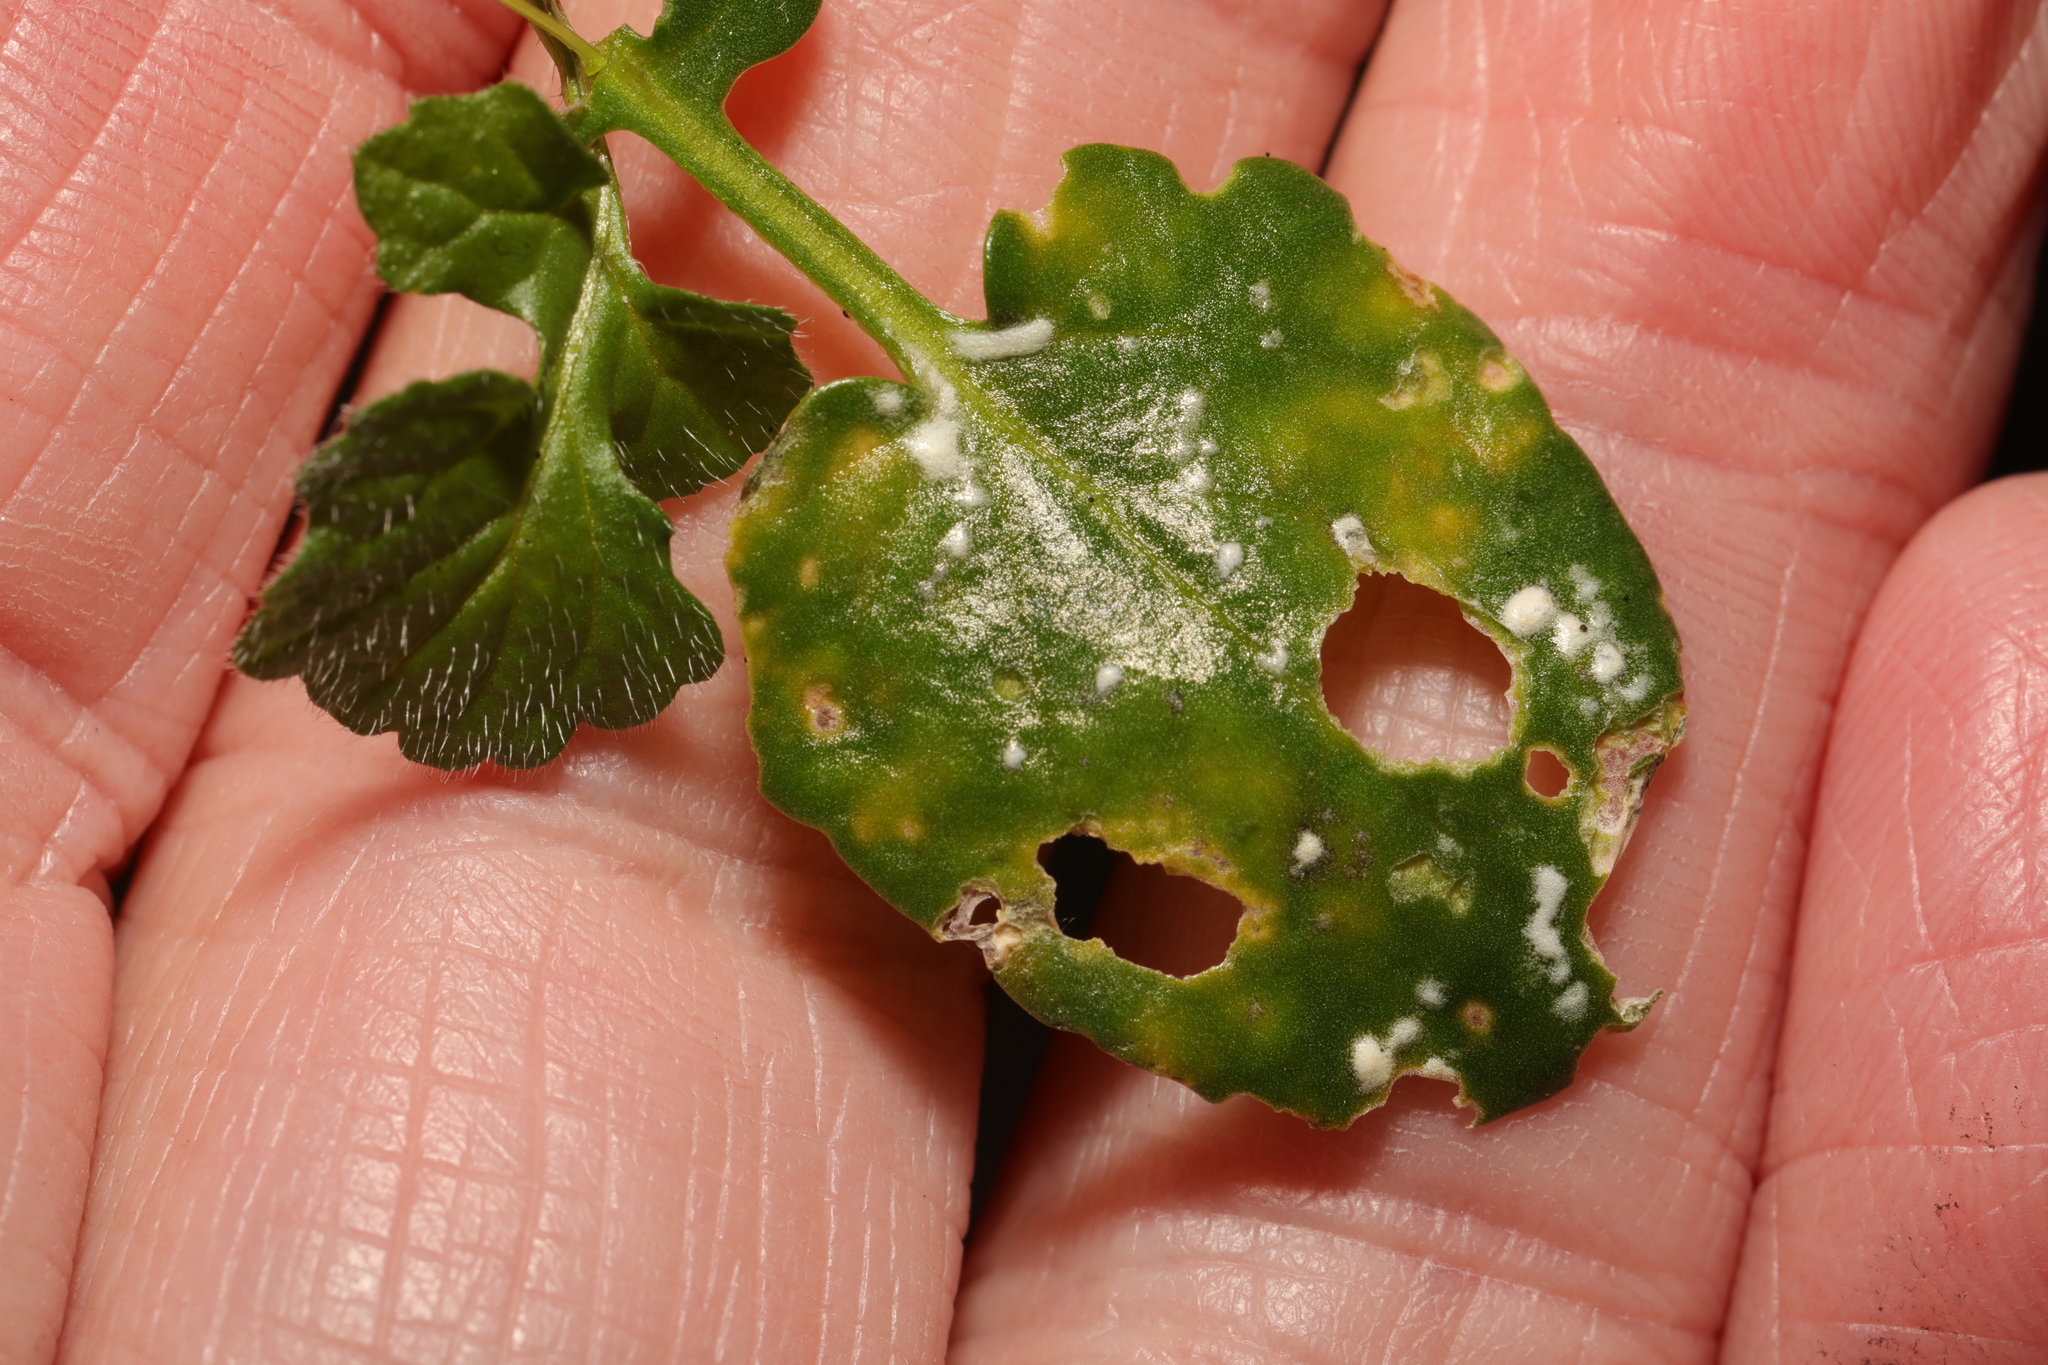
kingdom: Chromista
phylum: Oomycota
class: Peronosporea
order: Albuginales
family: Albuginaceae
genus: Albugo
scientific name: Albugo candida
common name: Crucifer white blister
